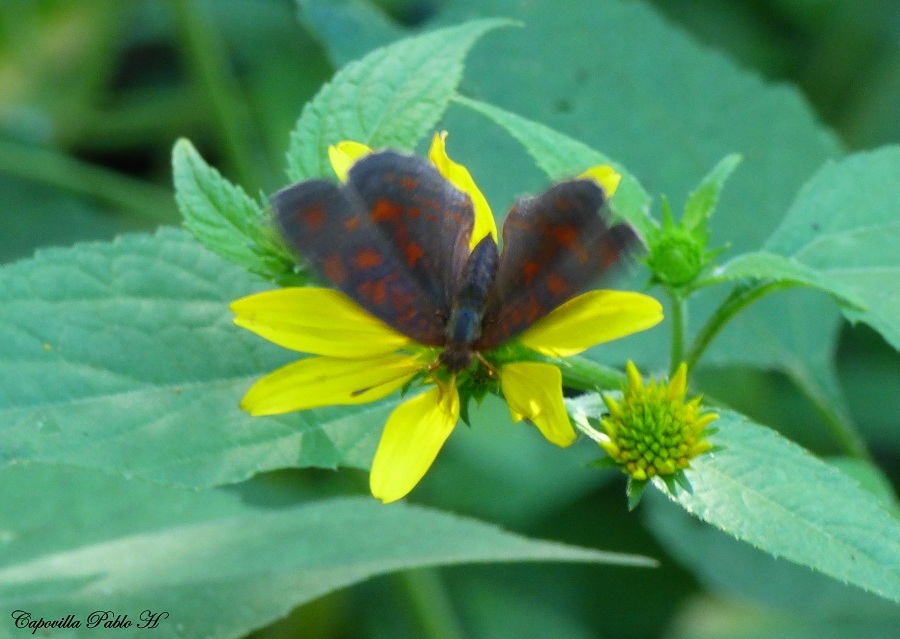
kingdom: Animalia
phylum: Arthropoda
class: Insecta
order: Lepidoptera
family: Nymphalidae
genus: Ortilia
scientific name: Ortilia velica
